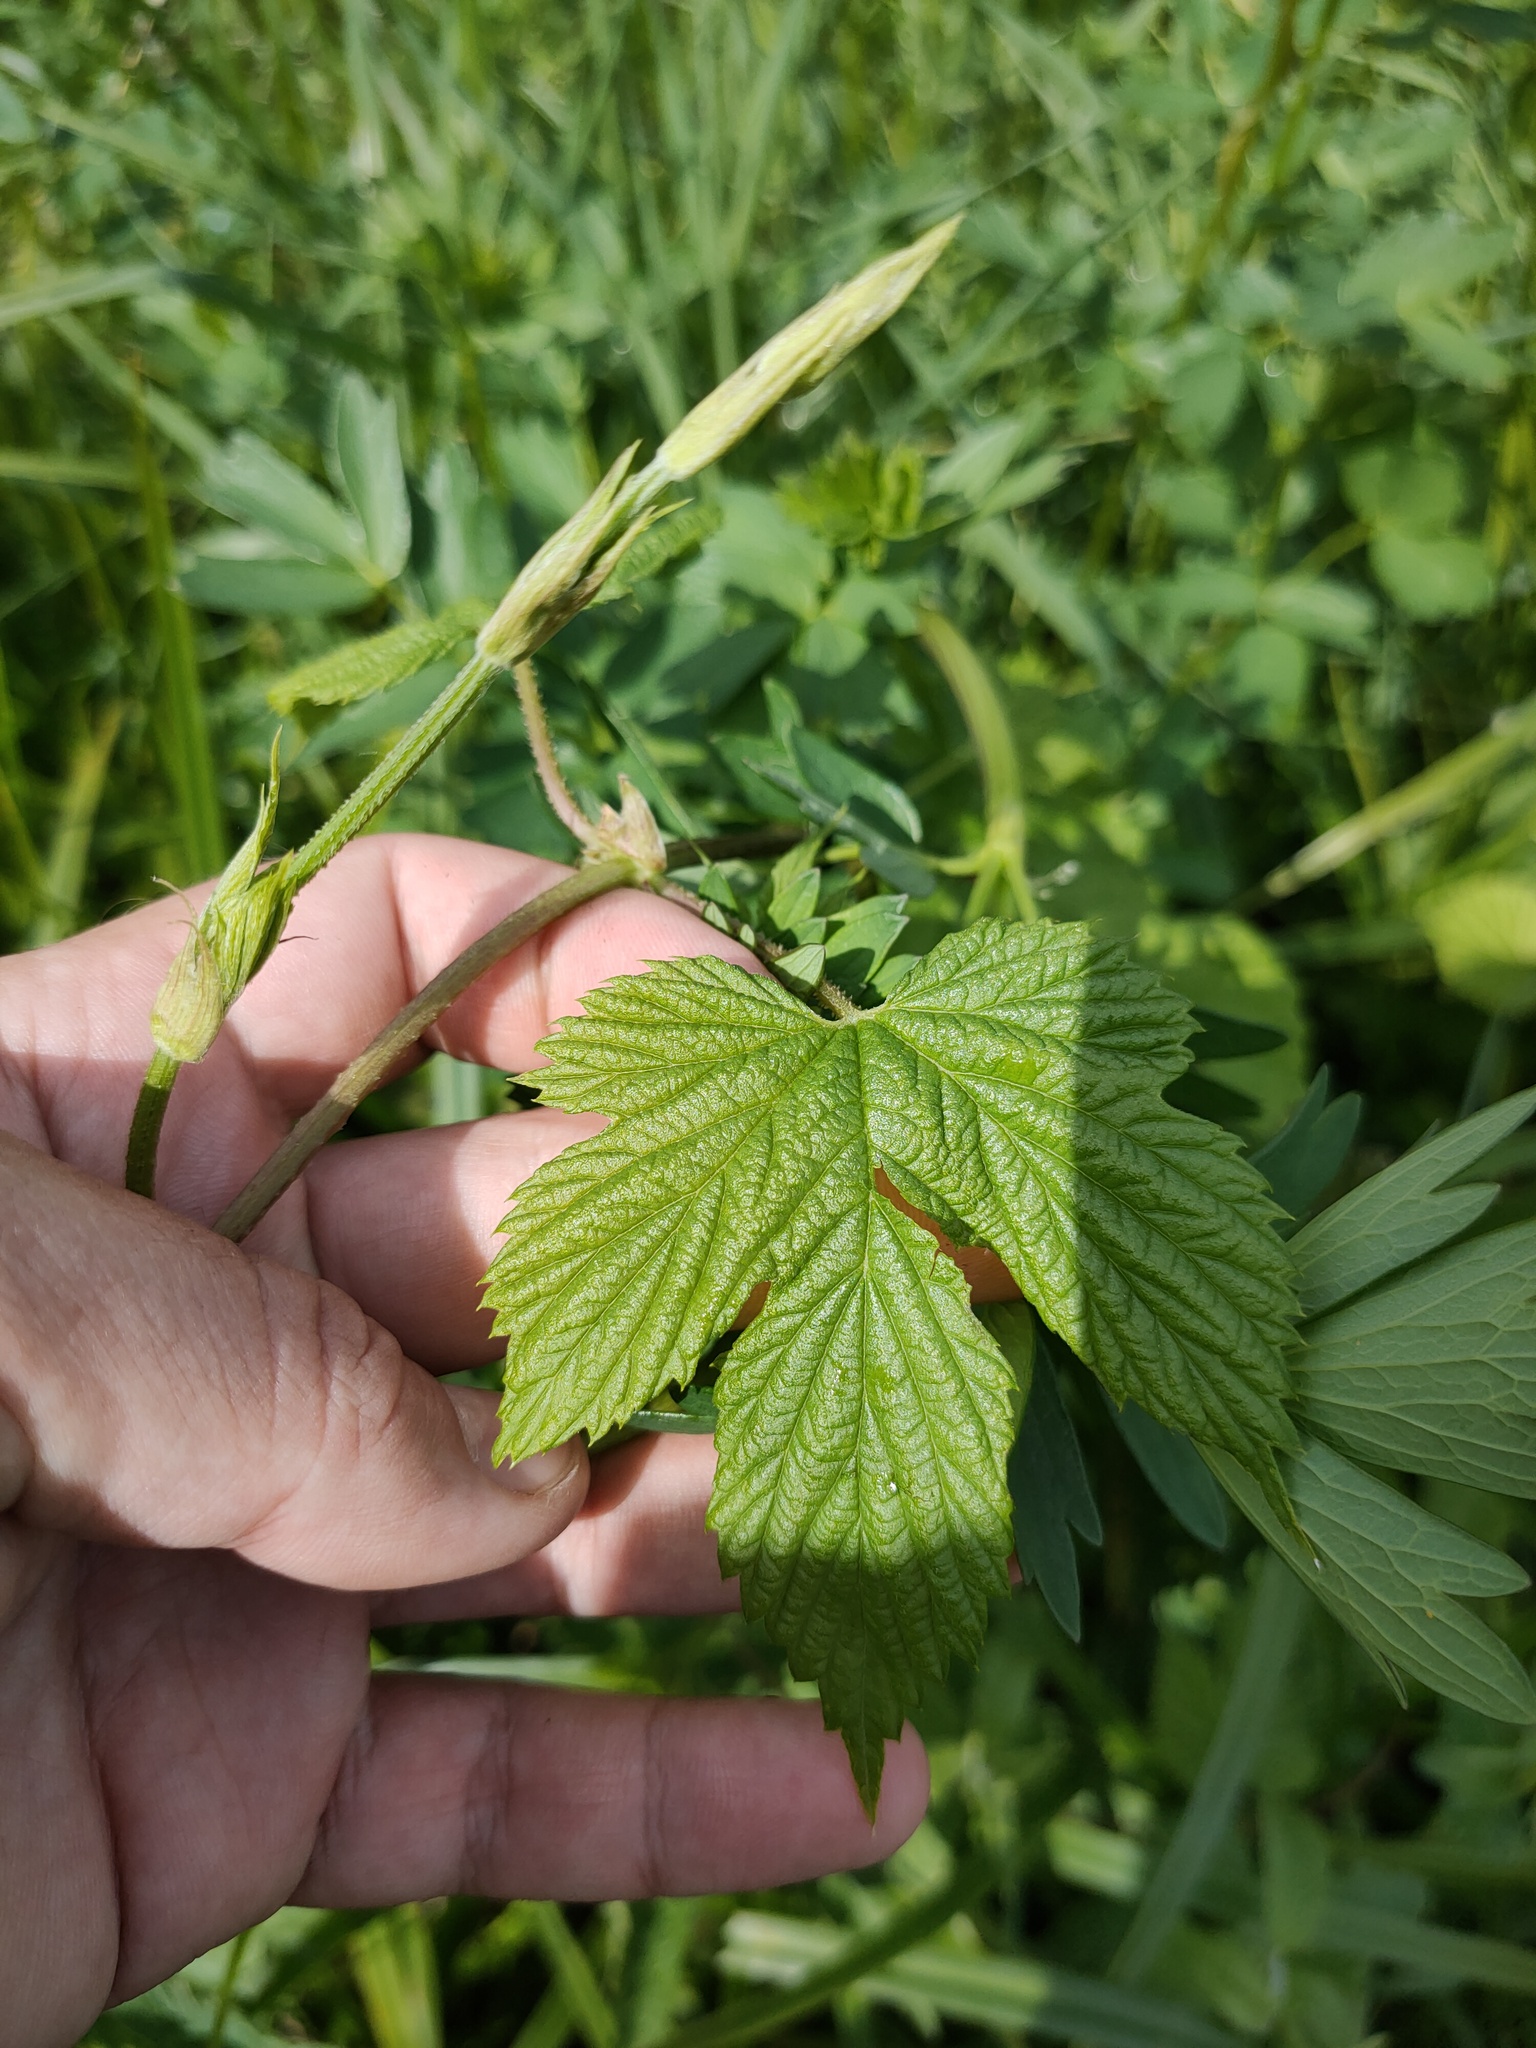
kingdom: Plantae
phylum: Tracheophyta
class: Magnoliopsida
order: Rosales
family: Cannabaceae
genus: Humulus
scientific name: Humulus lupulus
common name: Hop
